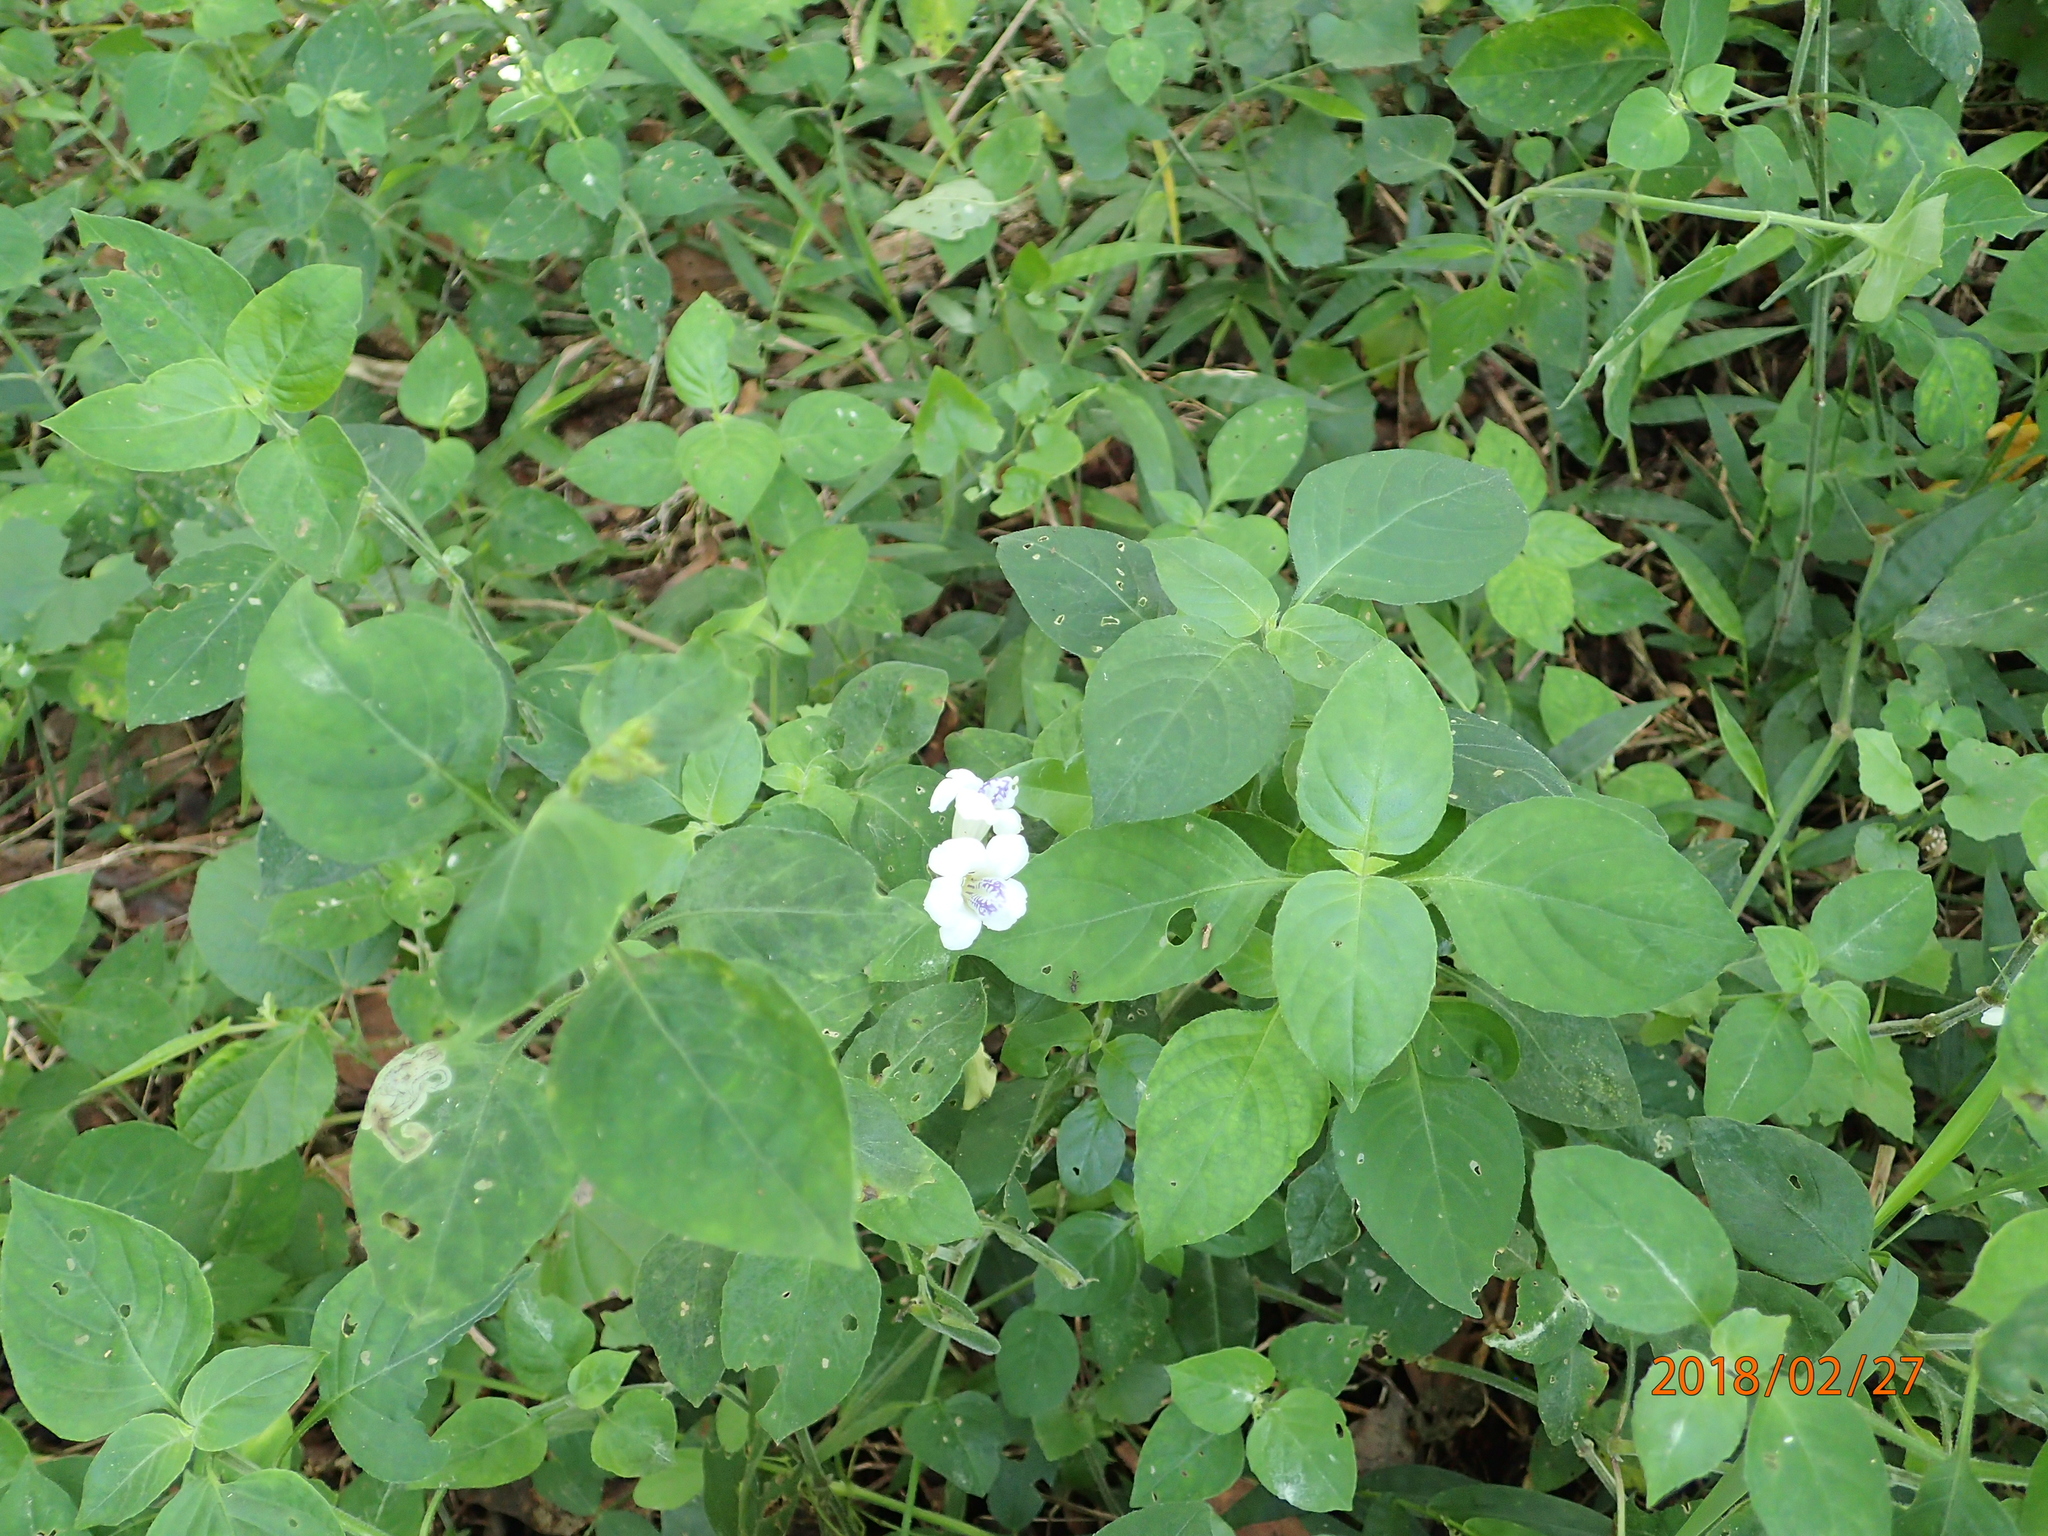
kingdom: Plantae
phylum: Tracheophyta
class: Magnoliopsida
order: Lamiales
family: Acanthaceae
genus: Asystasia
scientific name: Asystasia intrusa
